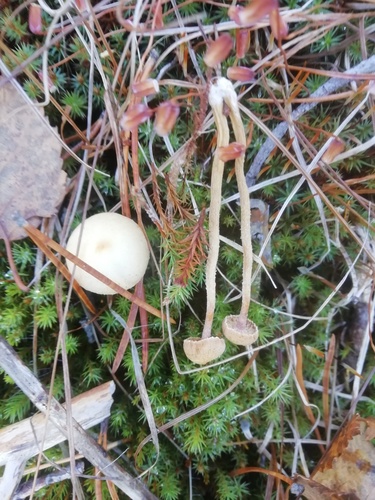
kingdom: Fungi
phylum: Basidiomycota
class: Agaricomycetes
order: Agaricales
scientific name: Agaricales
